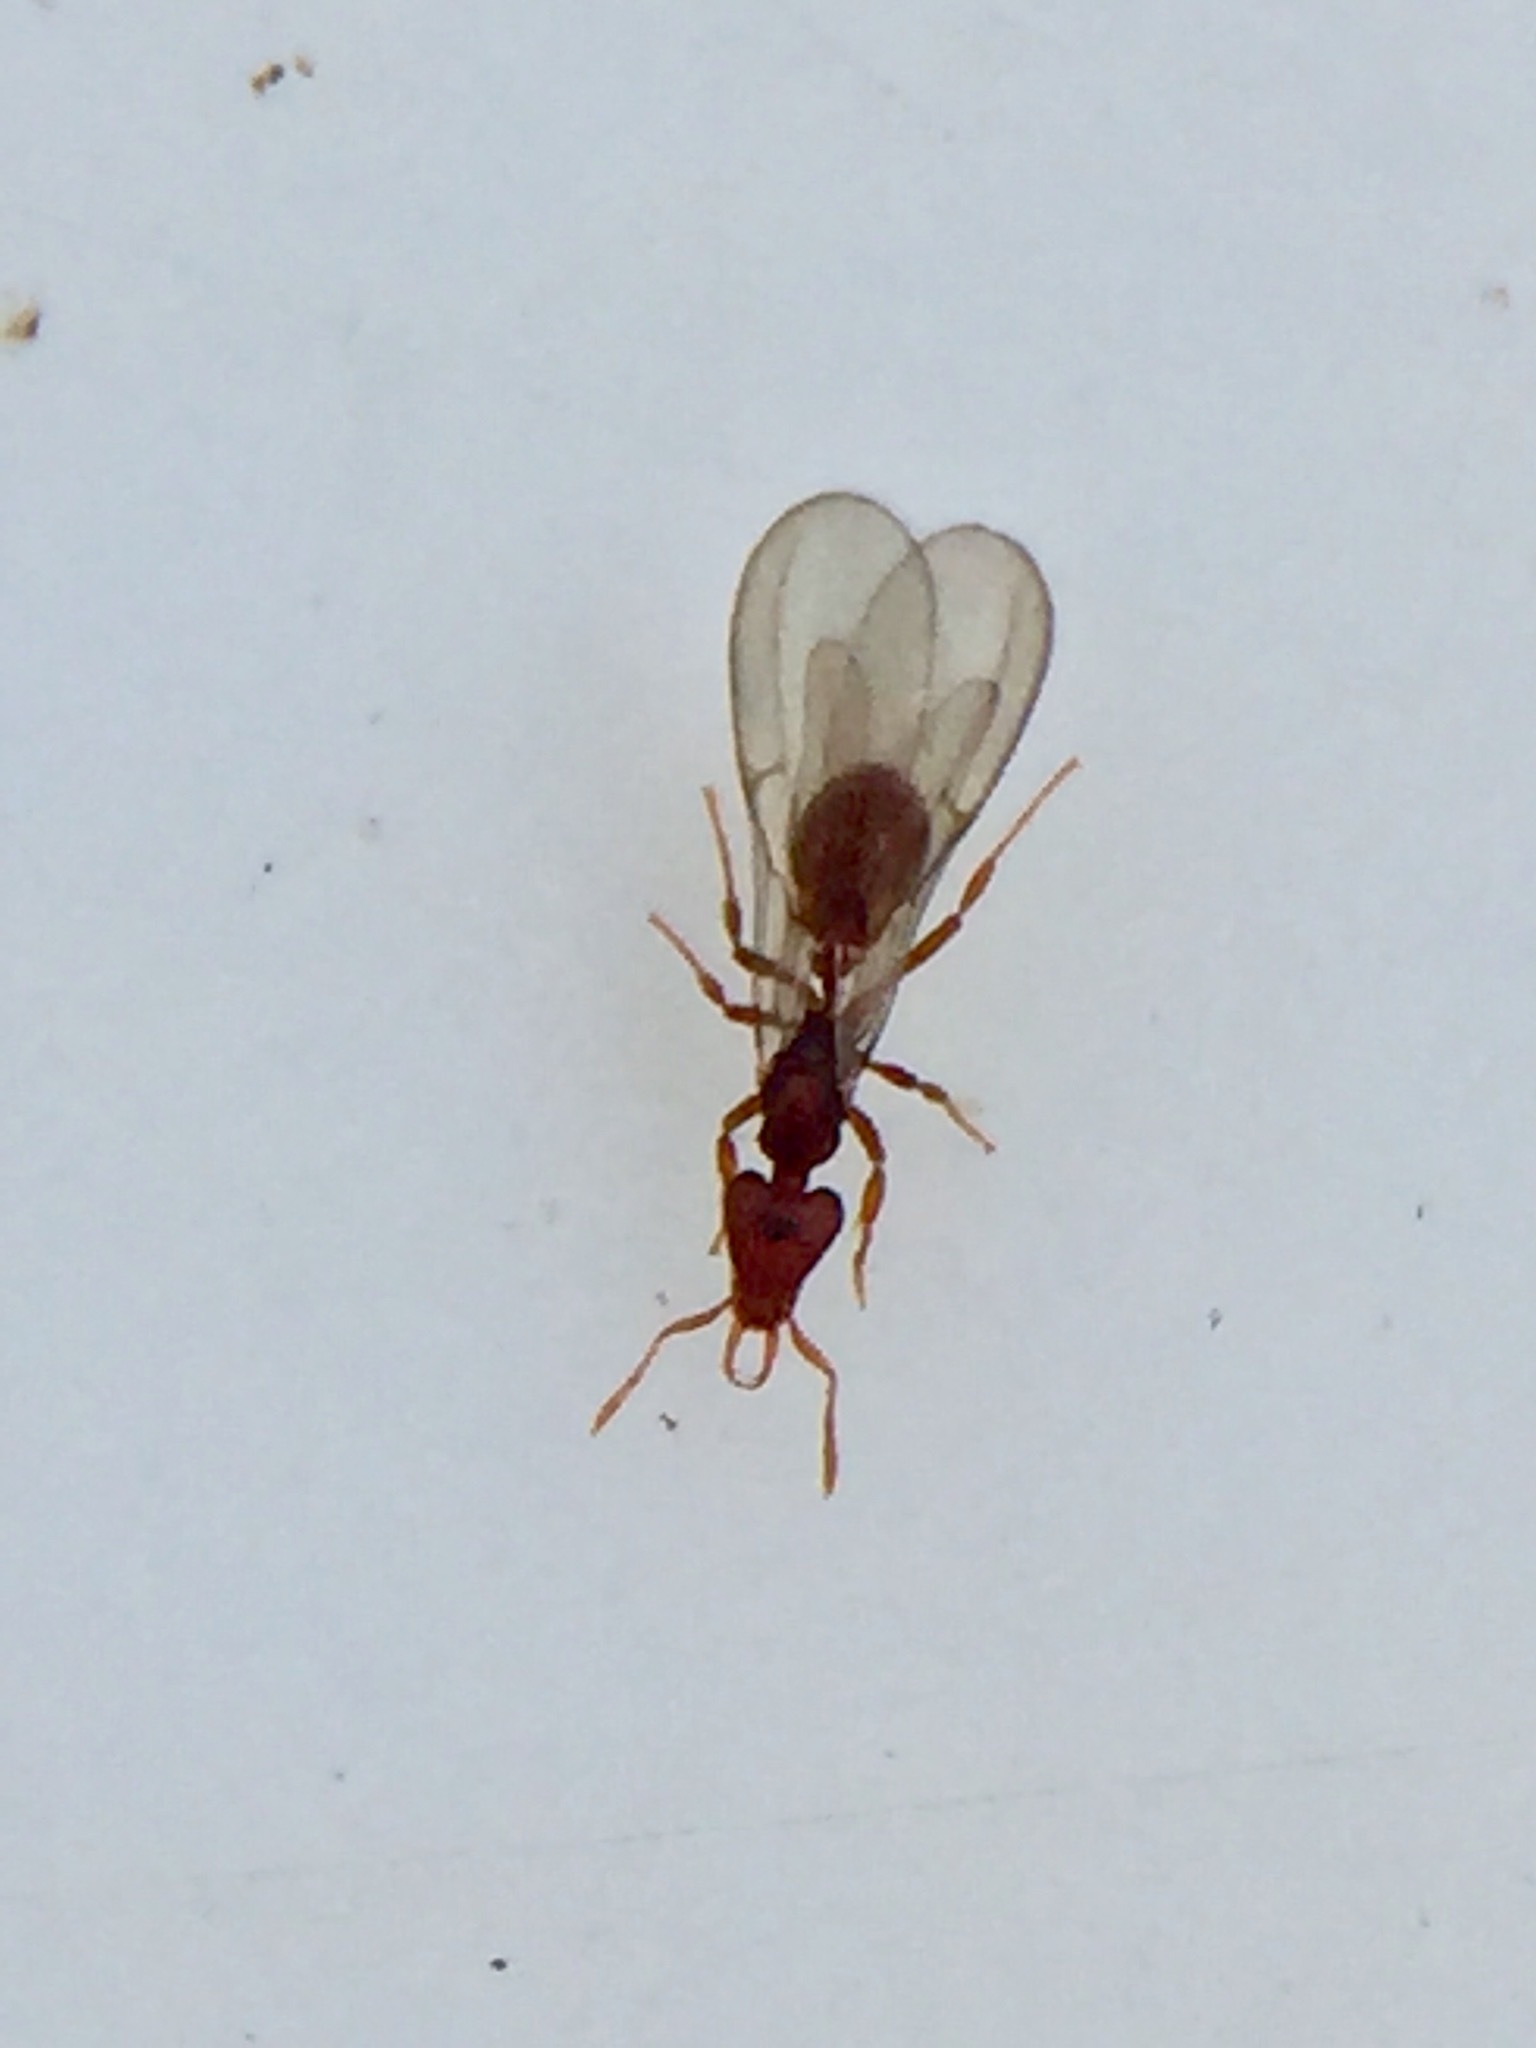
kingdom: Animalia
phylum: Arthropoda
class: Insecta
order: Hymenoptera
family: Formicidae
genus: Strumigenys
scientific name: Strumigenys perplexa
